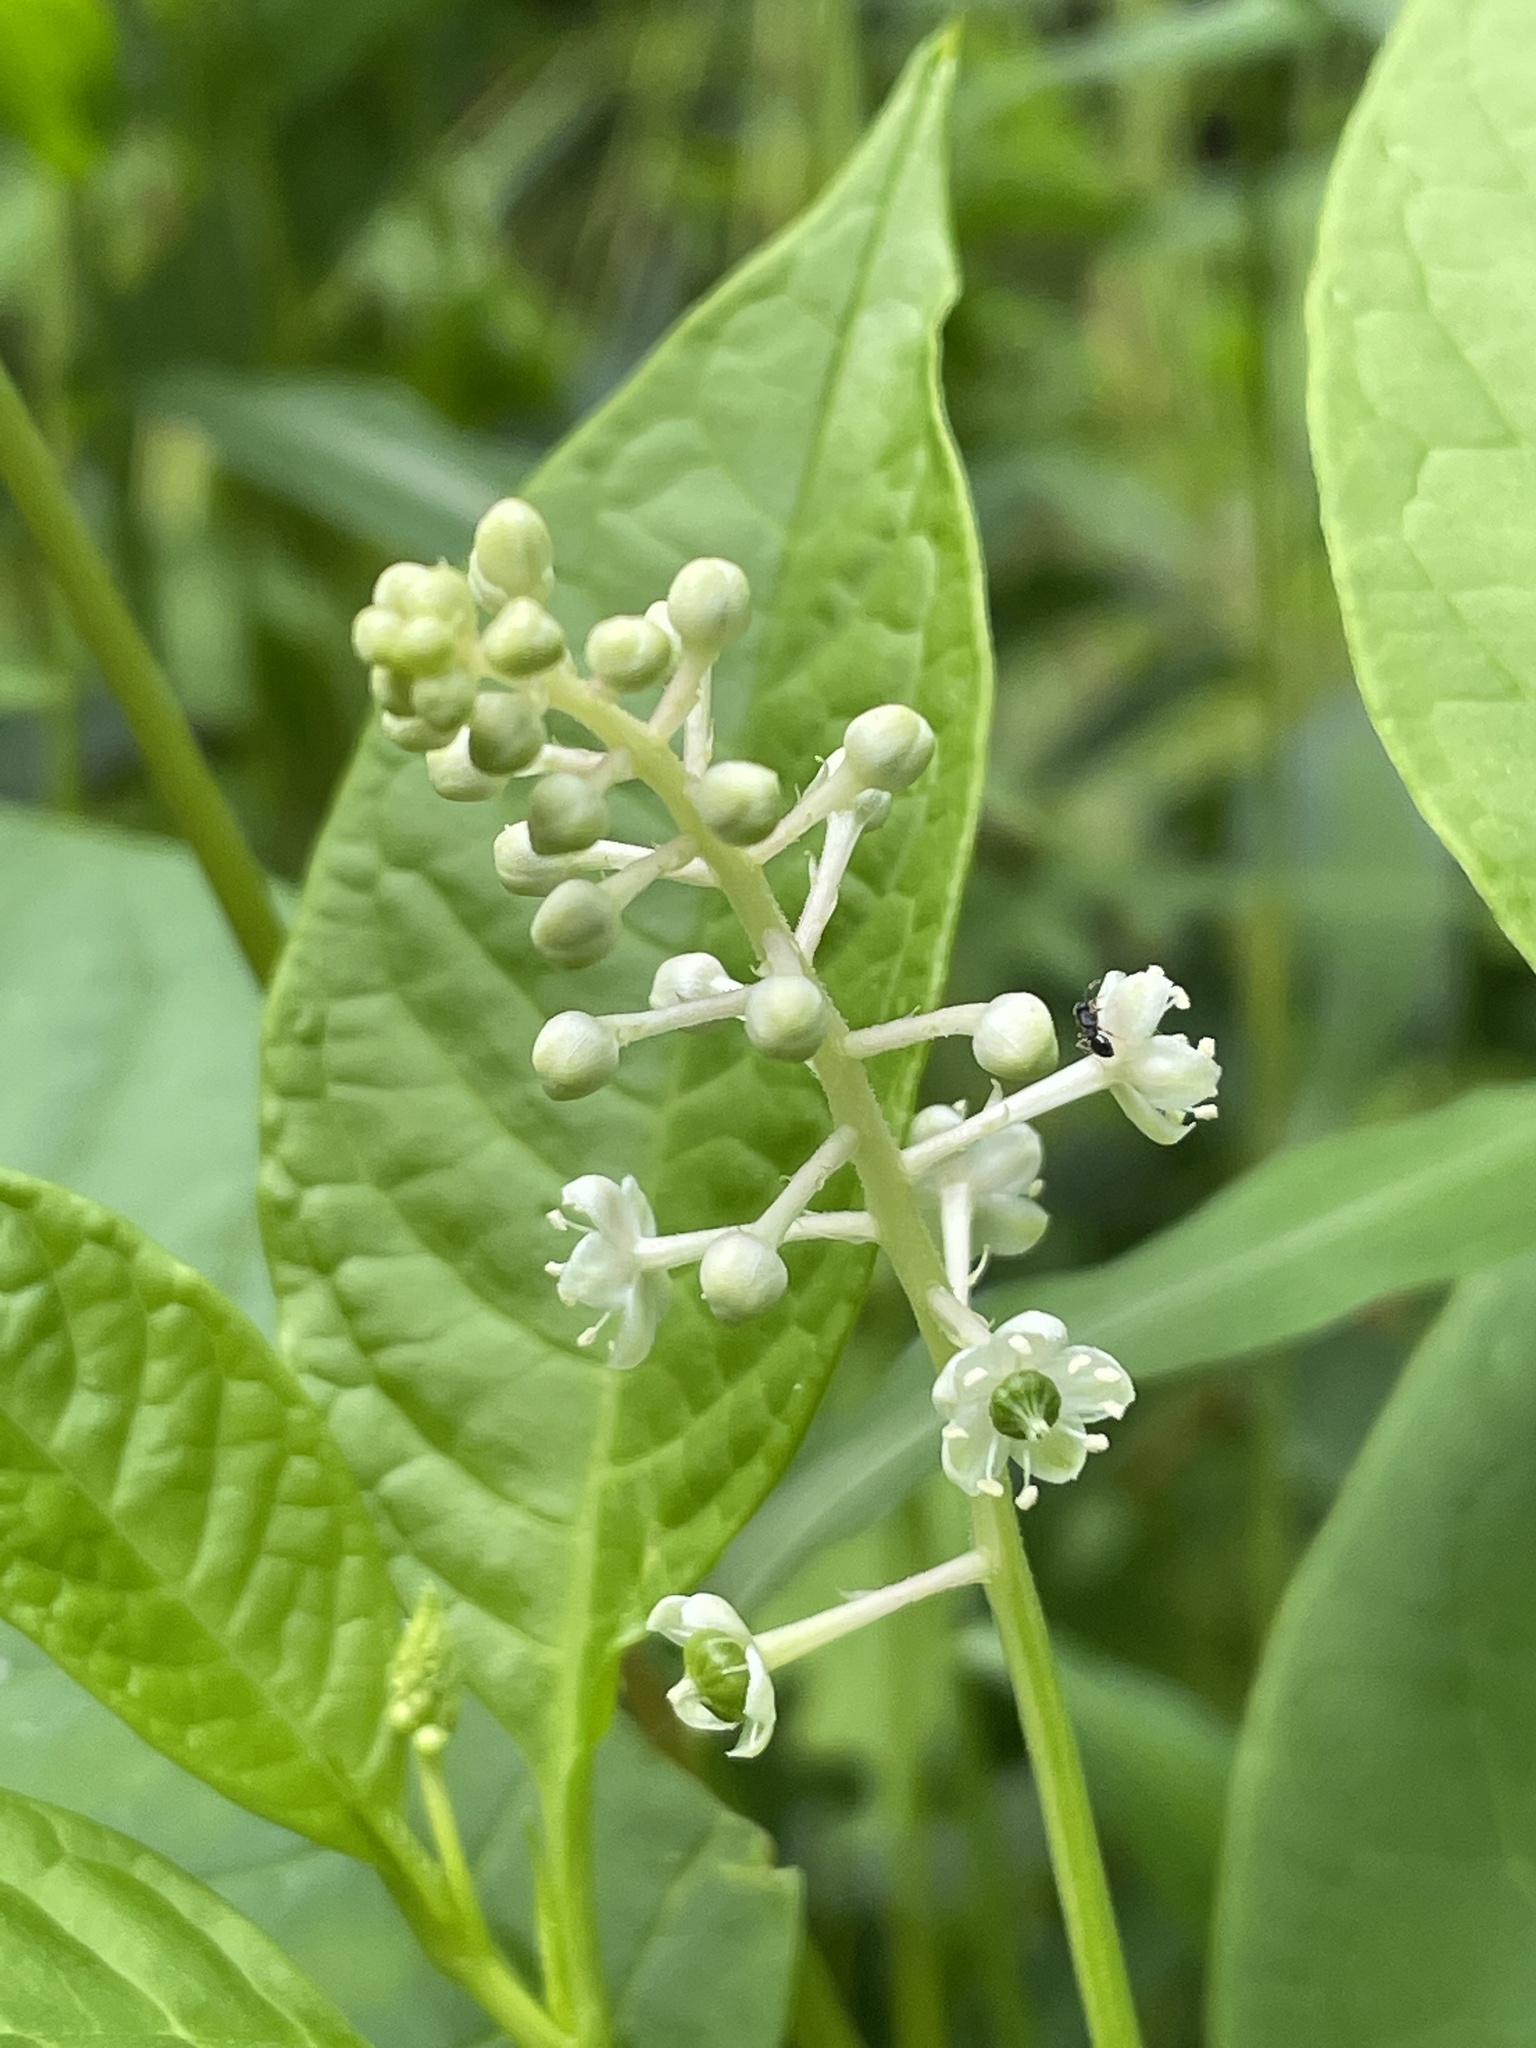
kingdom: Plantae
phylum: Tracheophyta
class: Magnoliopsida
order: Caryophyllales
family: Phytolaccaceae
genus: Phytolacca
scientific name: Phytolacca americana
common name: American pokeweed
